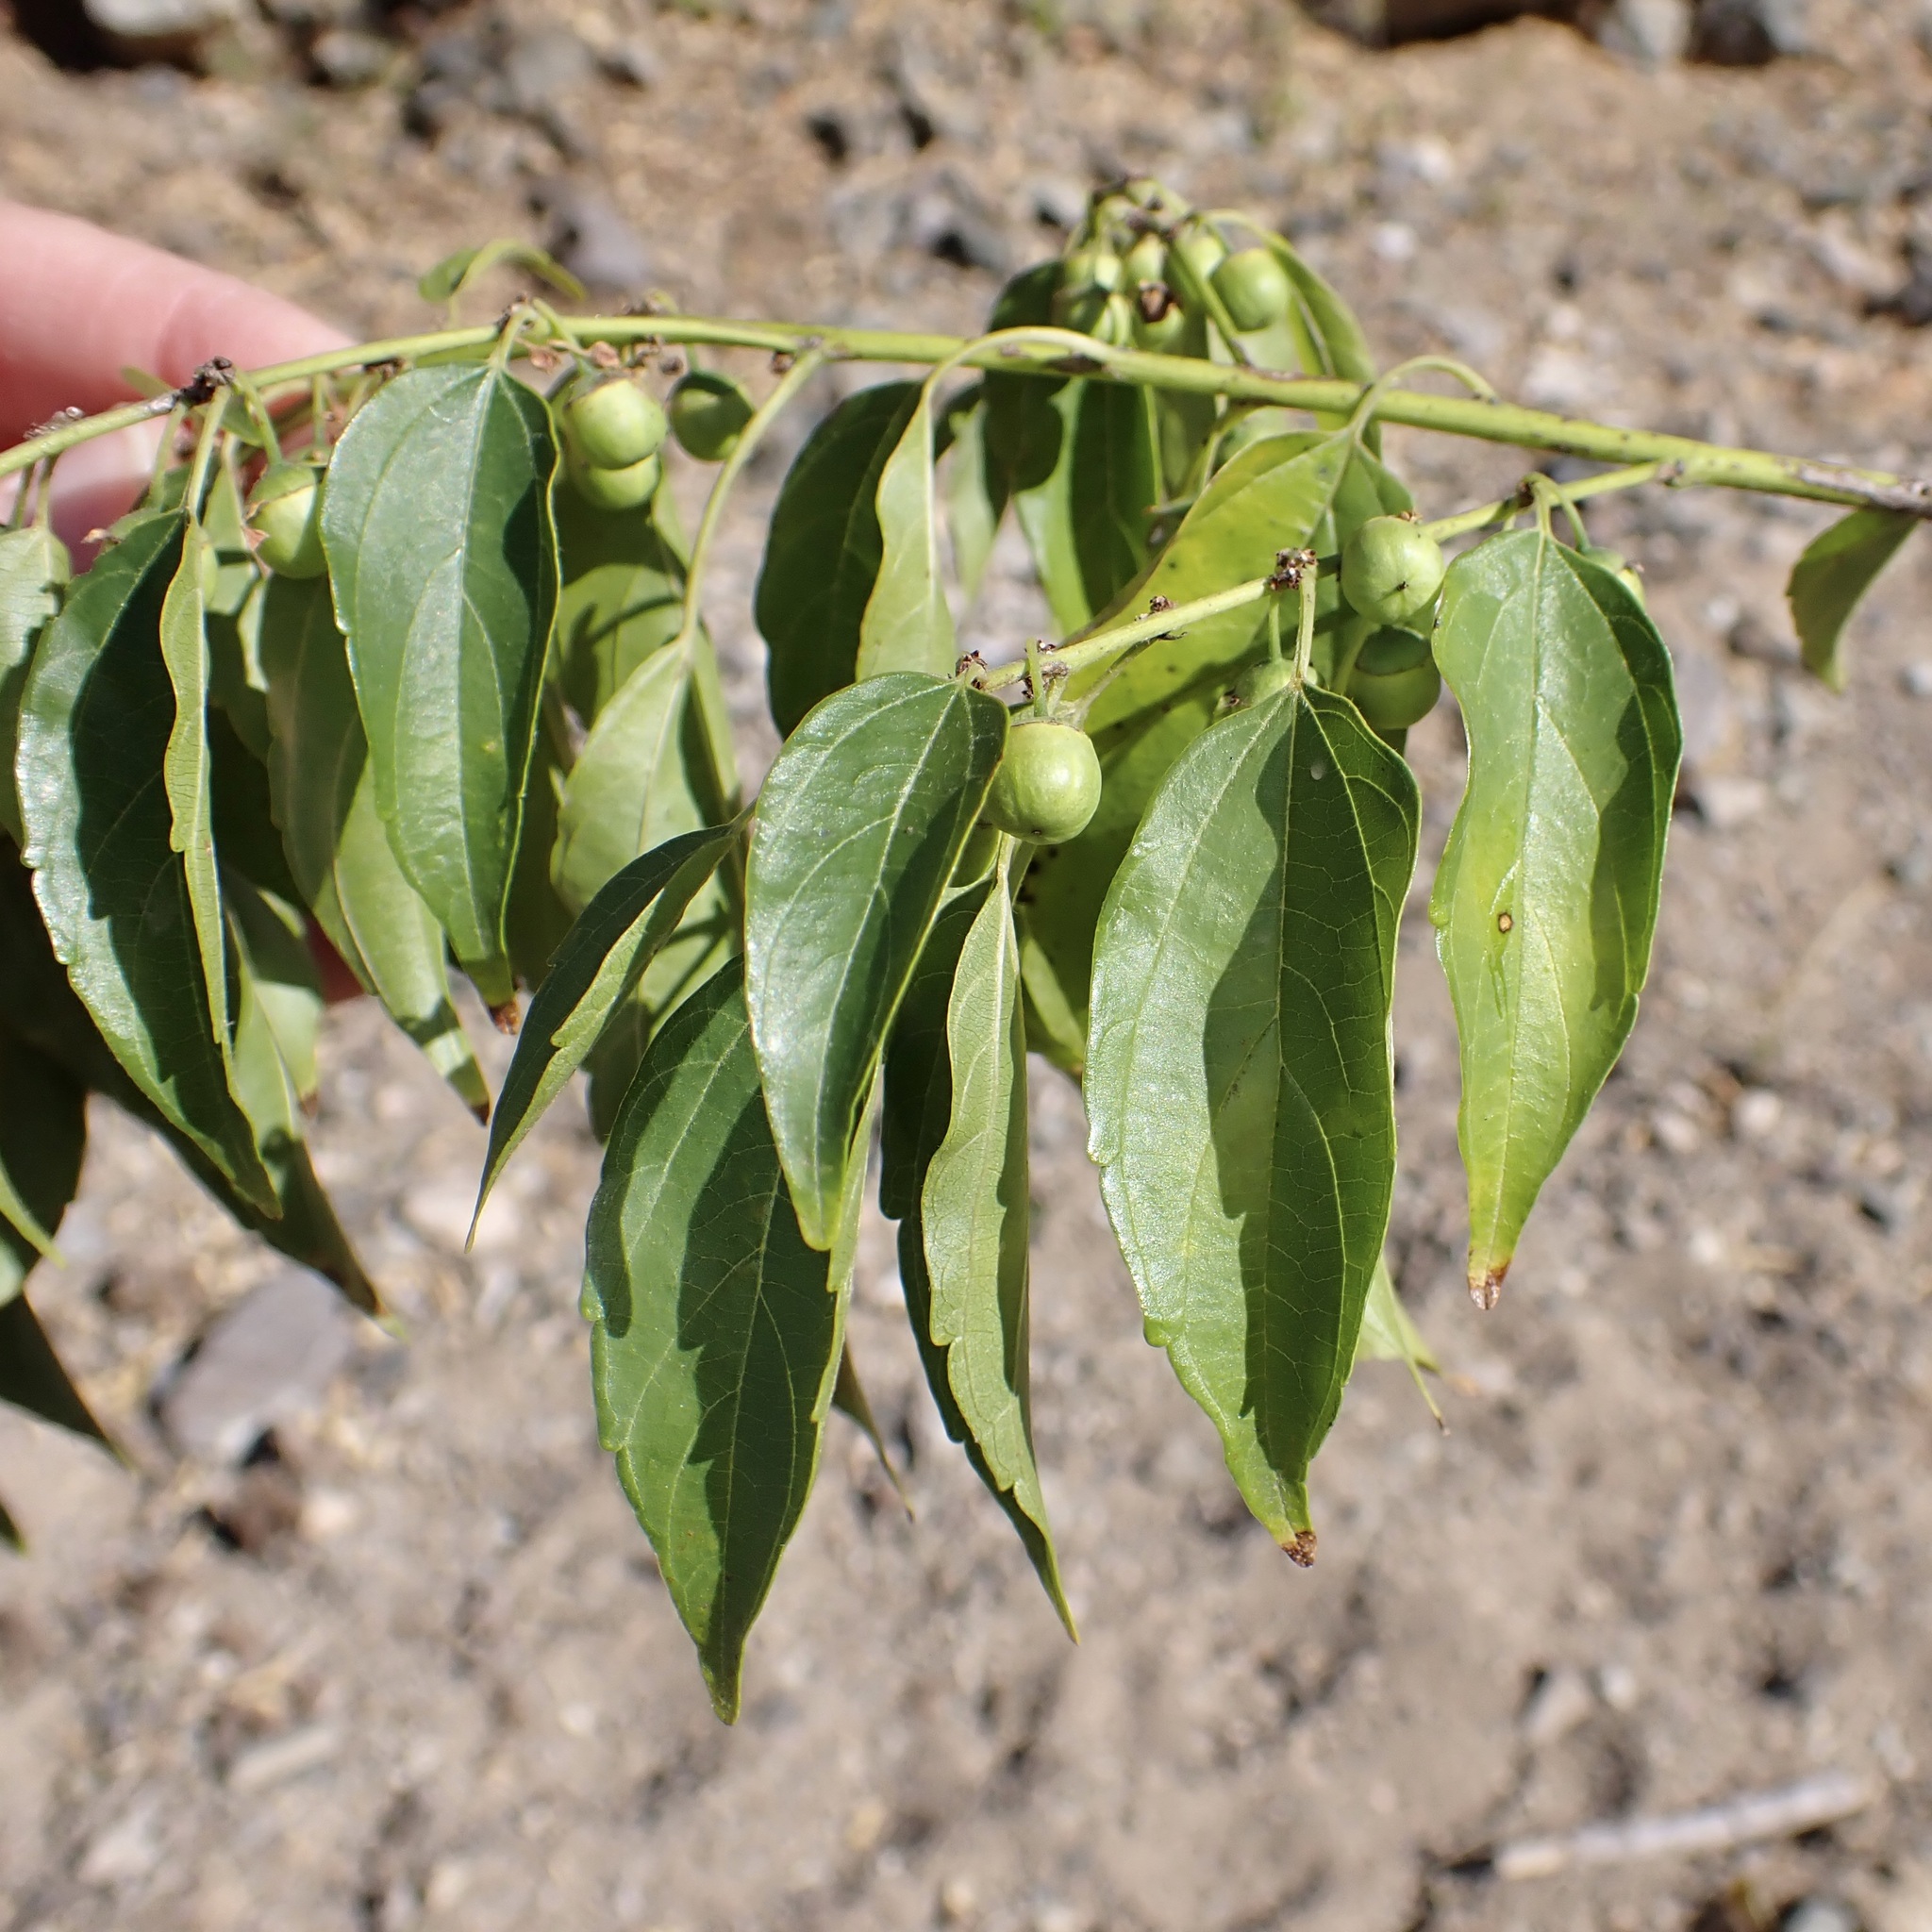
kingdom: Plantae
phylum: Tracheophyta
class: Magnoliopsida
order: Rosales
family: Rhamnaceae
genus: Colubrina
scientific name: Colubrina triflora
